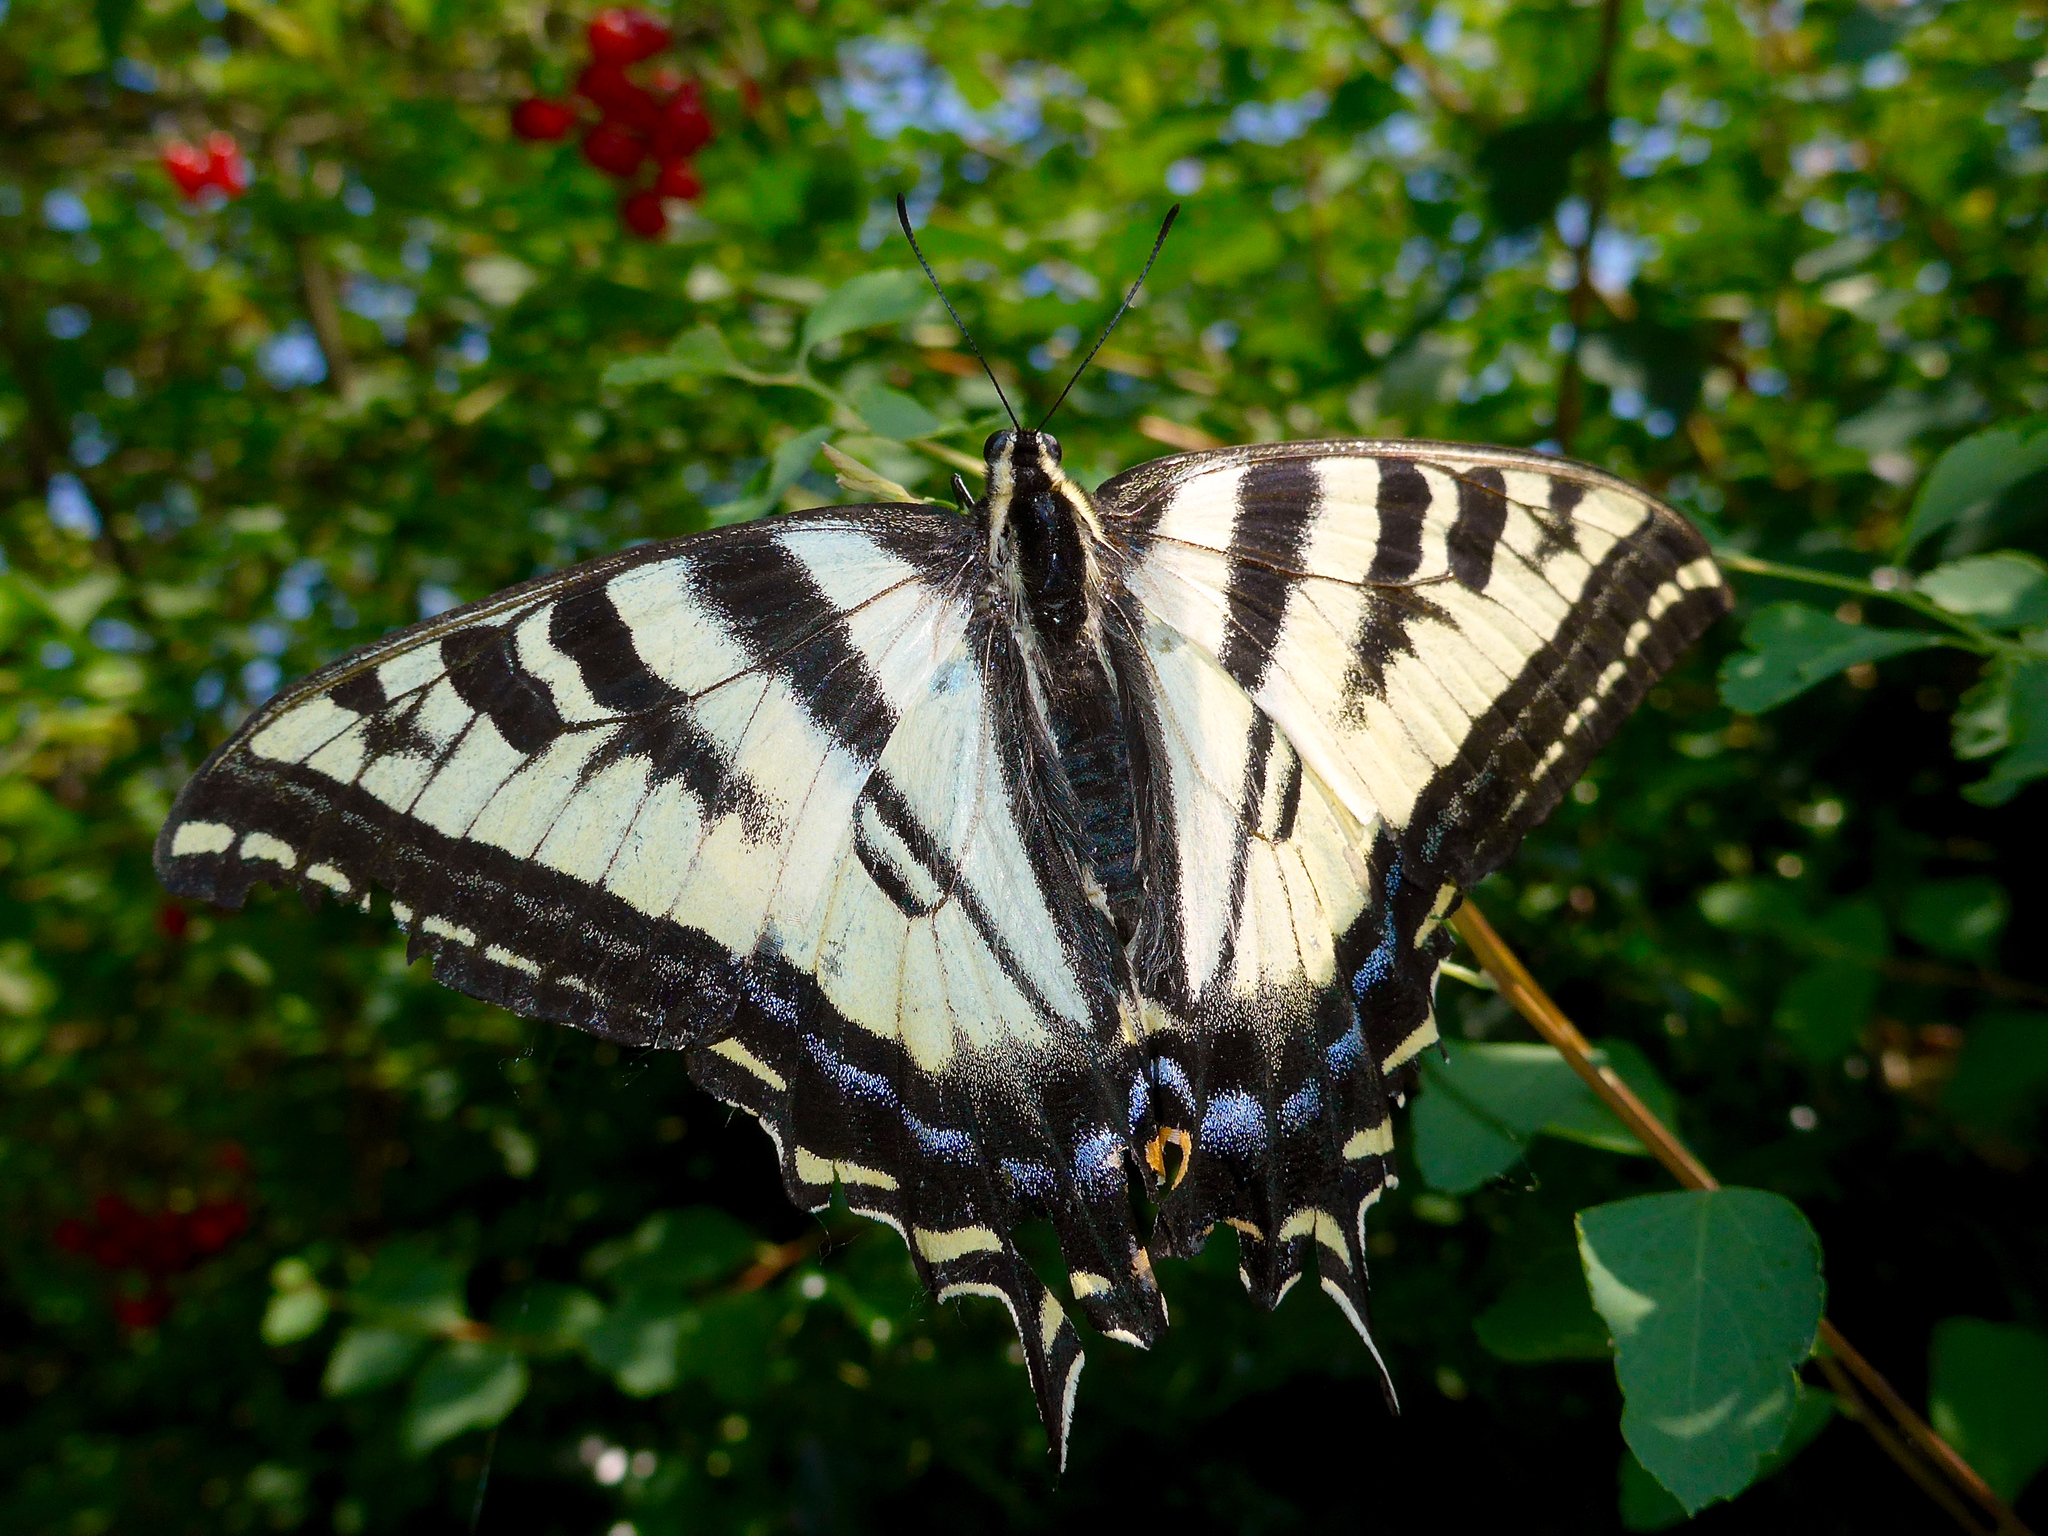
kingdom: Animalia
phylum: Arthropoda
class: Insecta
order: Lepidoptera
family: Papilionidae
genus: Papilio
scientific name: Papilio rutulus
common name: Western tiger swallowtail
